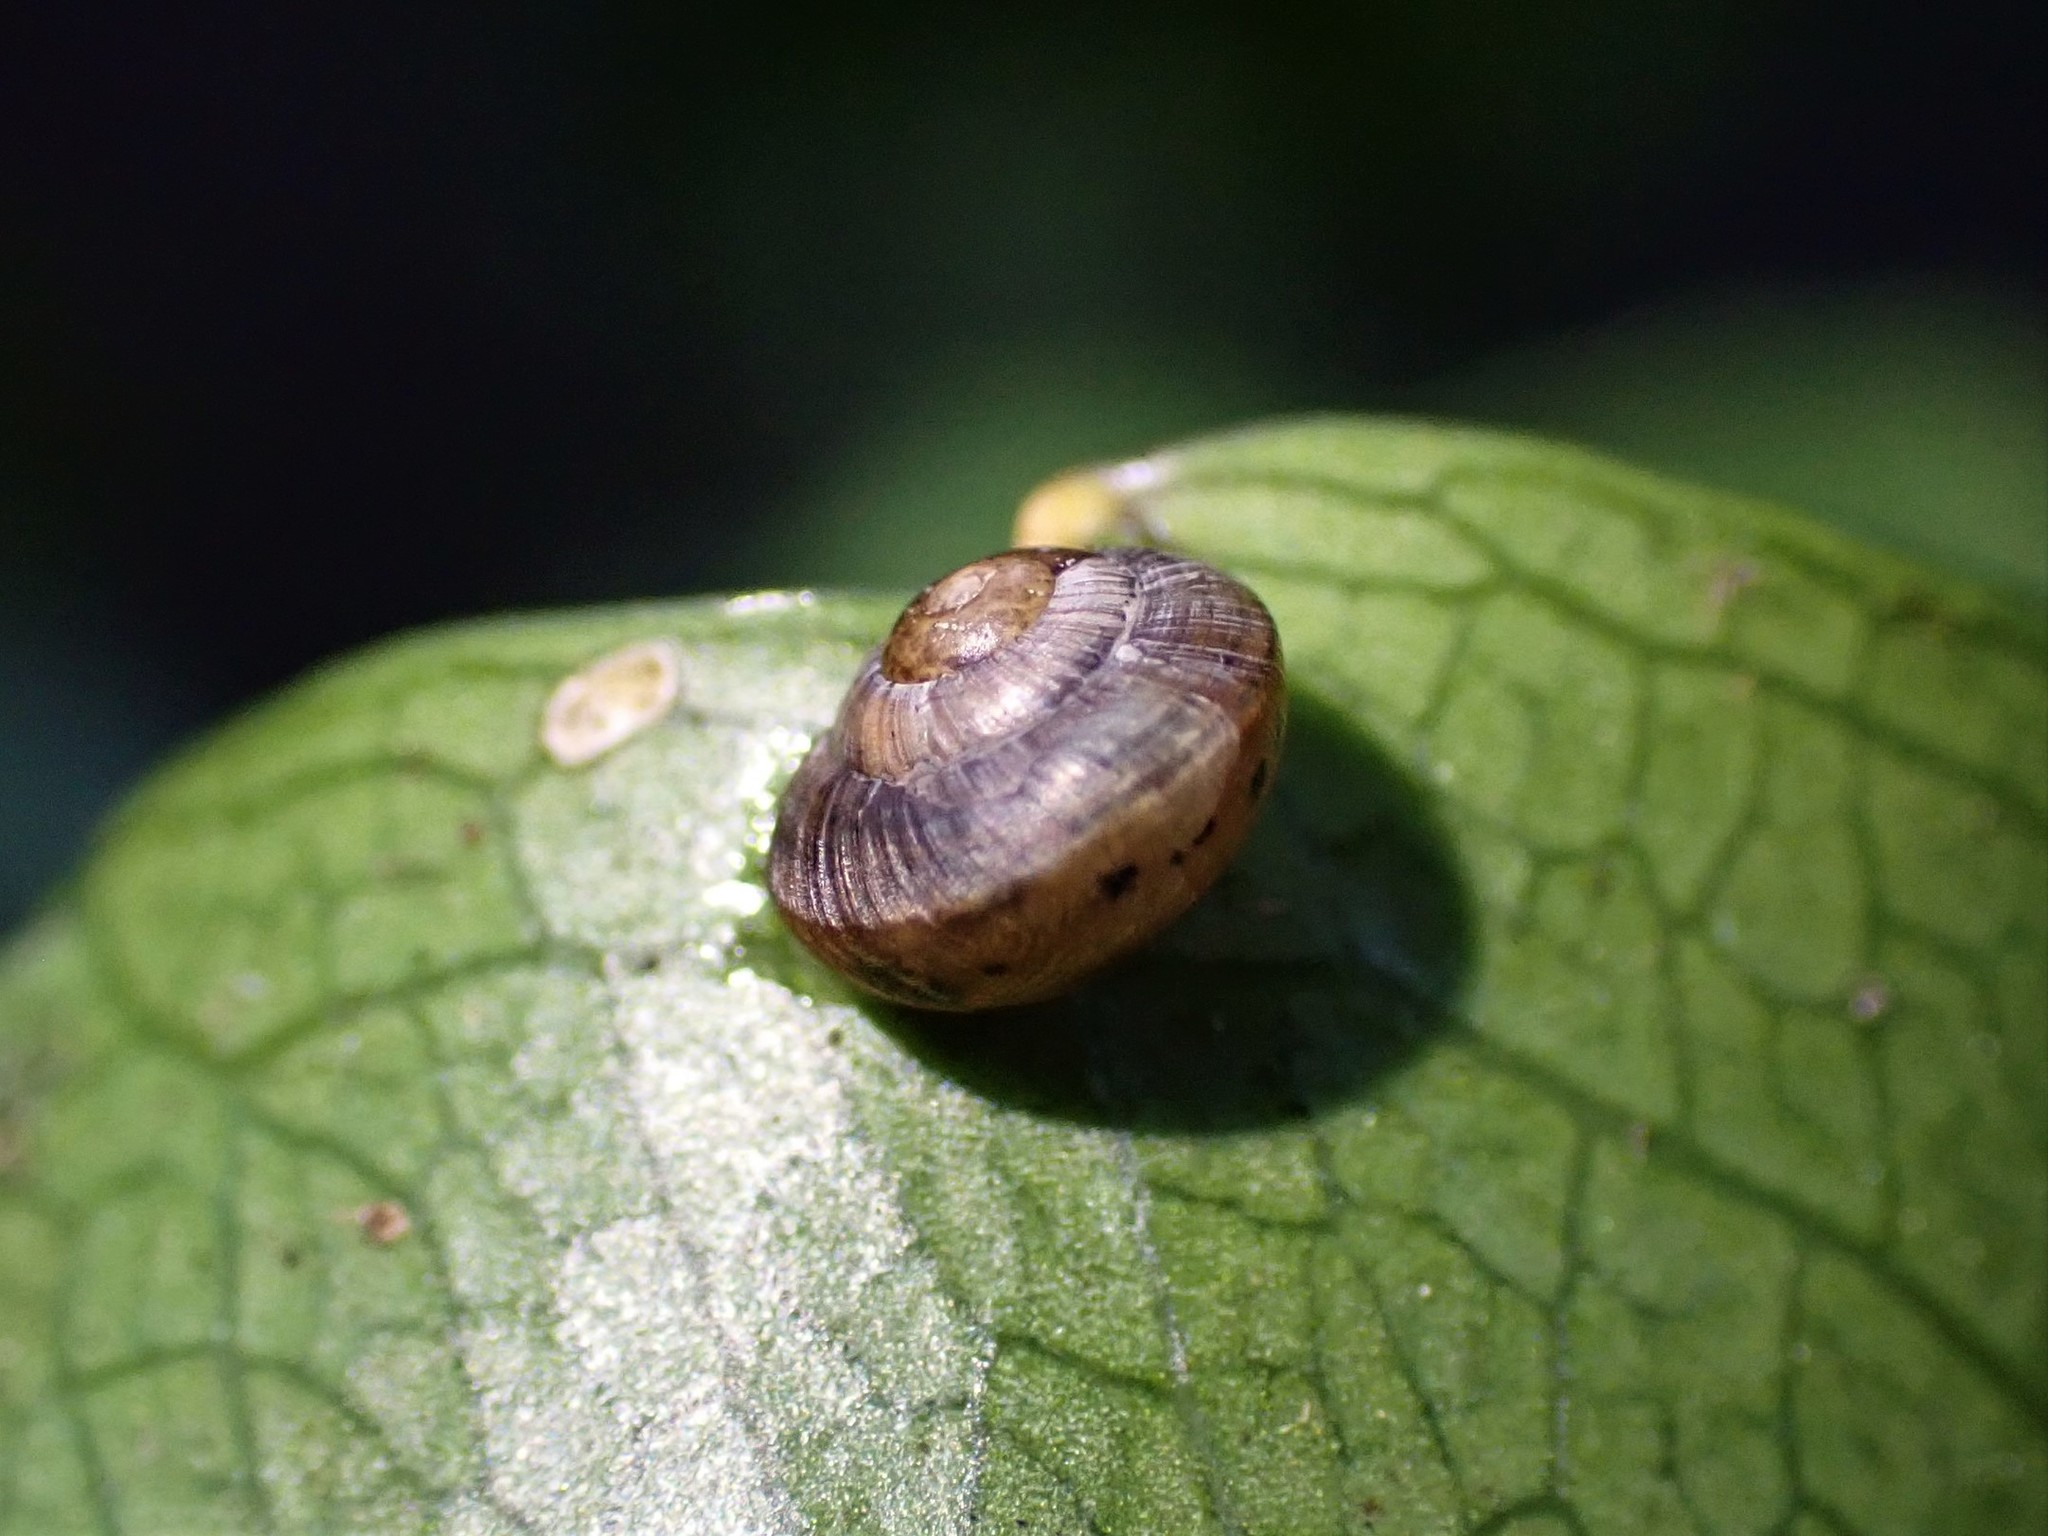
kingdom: Animalia
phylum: Mollusca
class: Gastropoda
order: Stylommatophora
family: Charopidae
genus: Serpho
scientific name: Serpho
